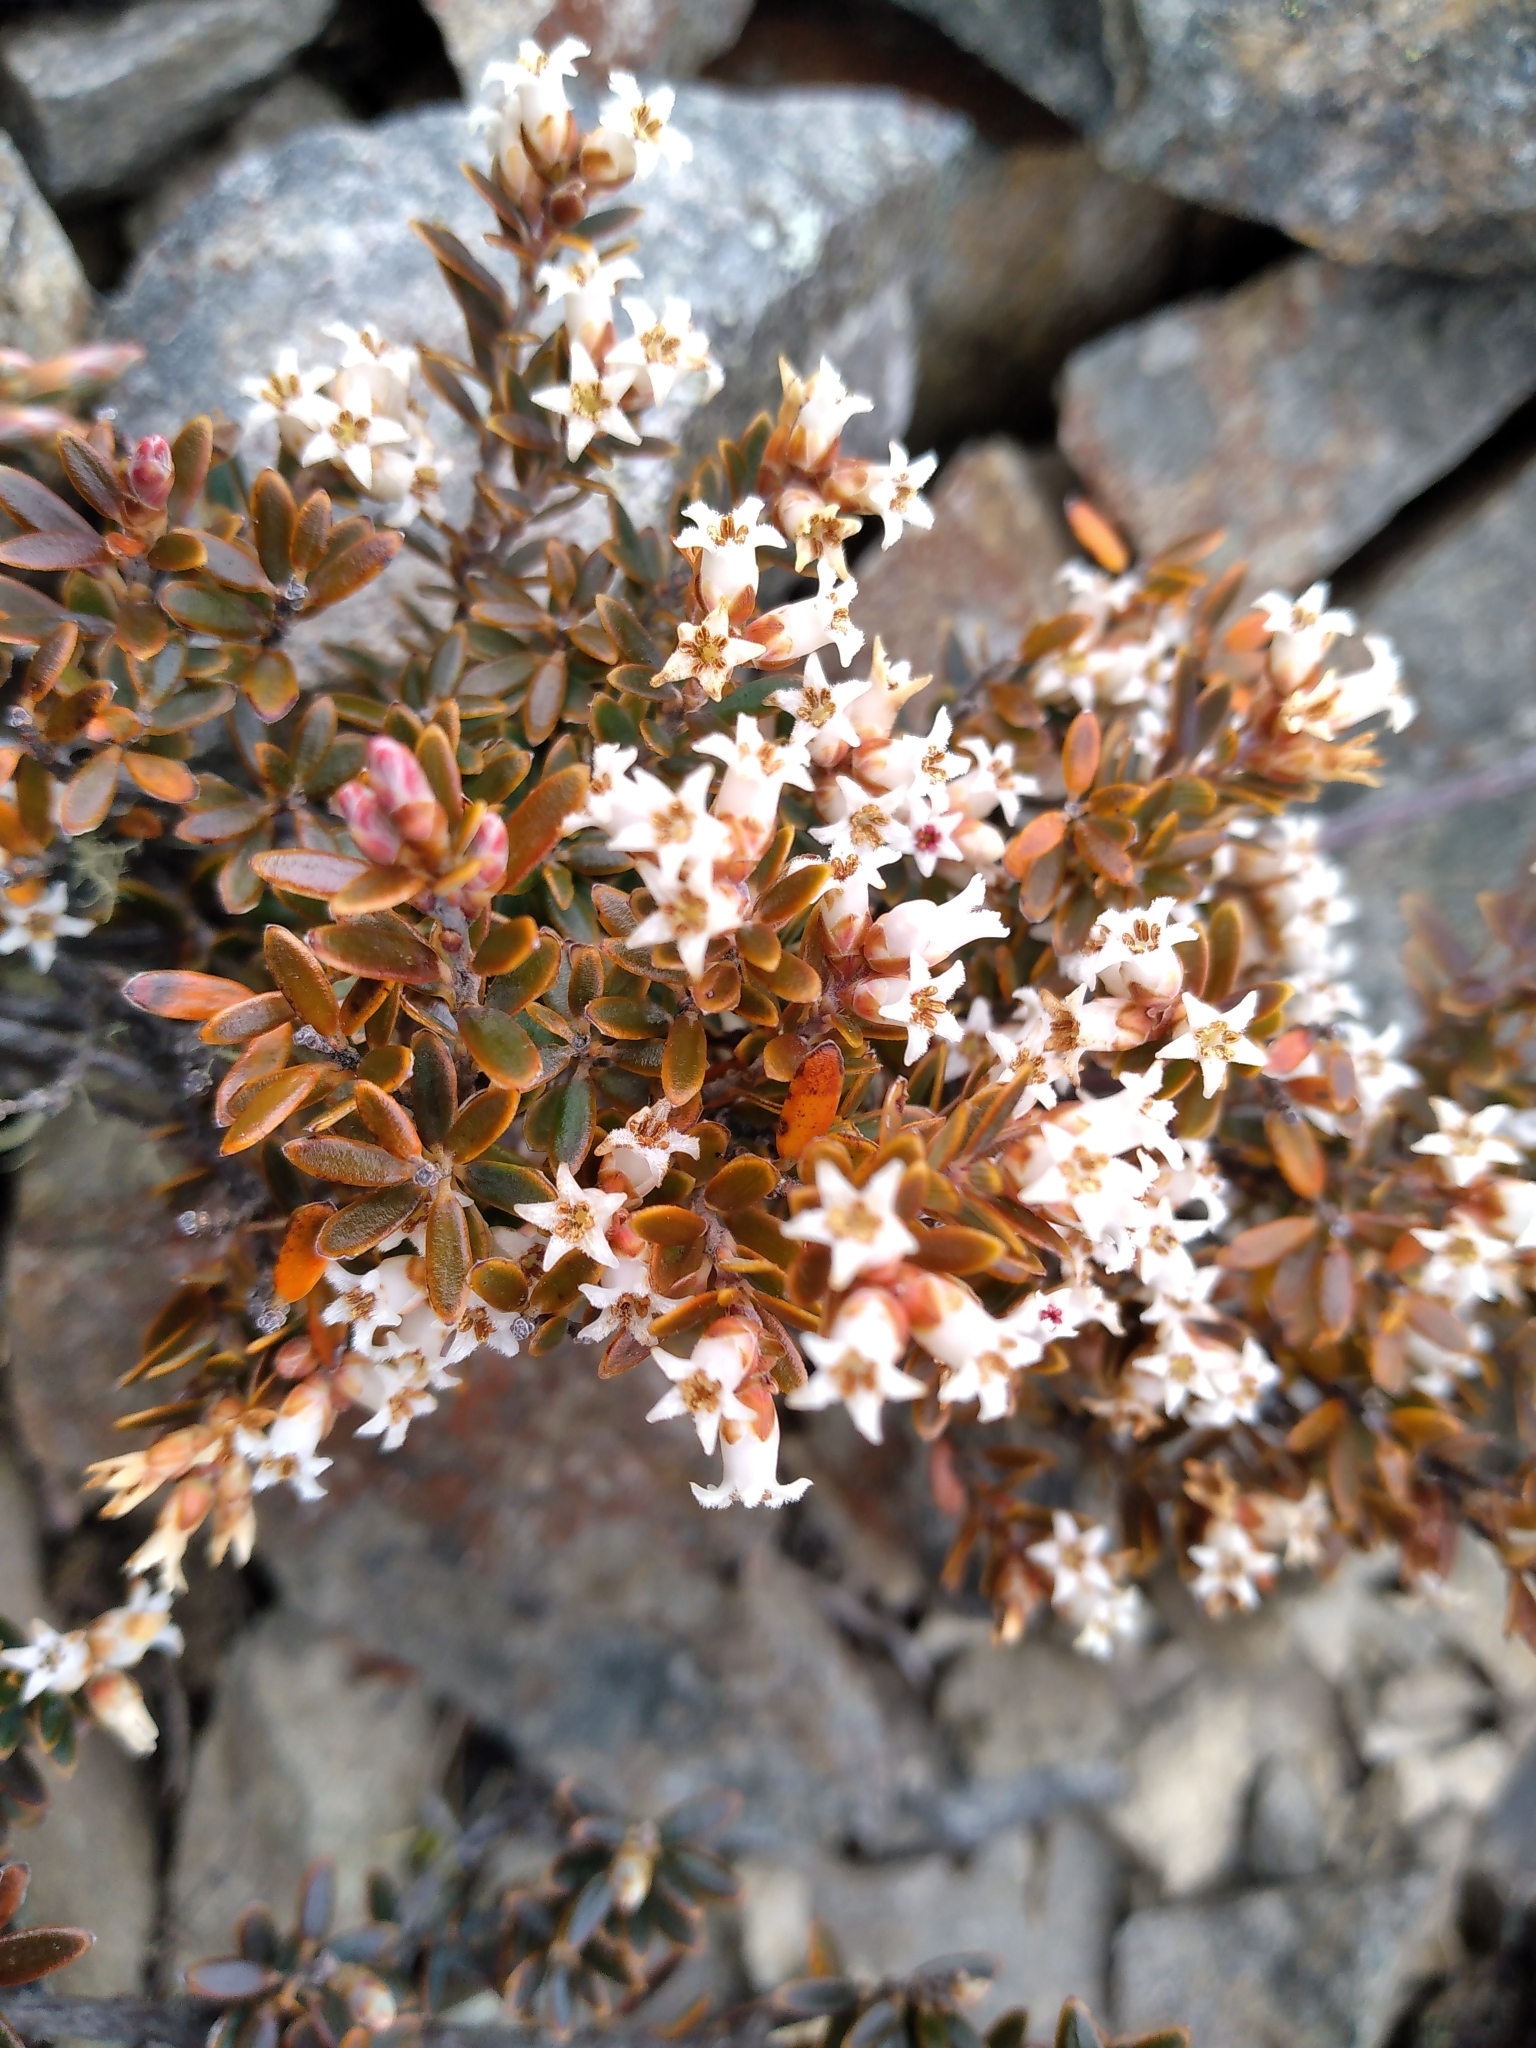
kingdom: Plantae
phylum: Tracheophyta
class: Magnoliopsida
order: Ericales
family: Ericaceae
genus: Acrothamnus
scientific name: Acrothamnus colensoi
